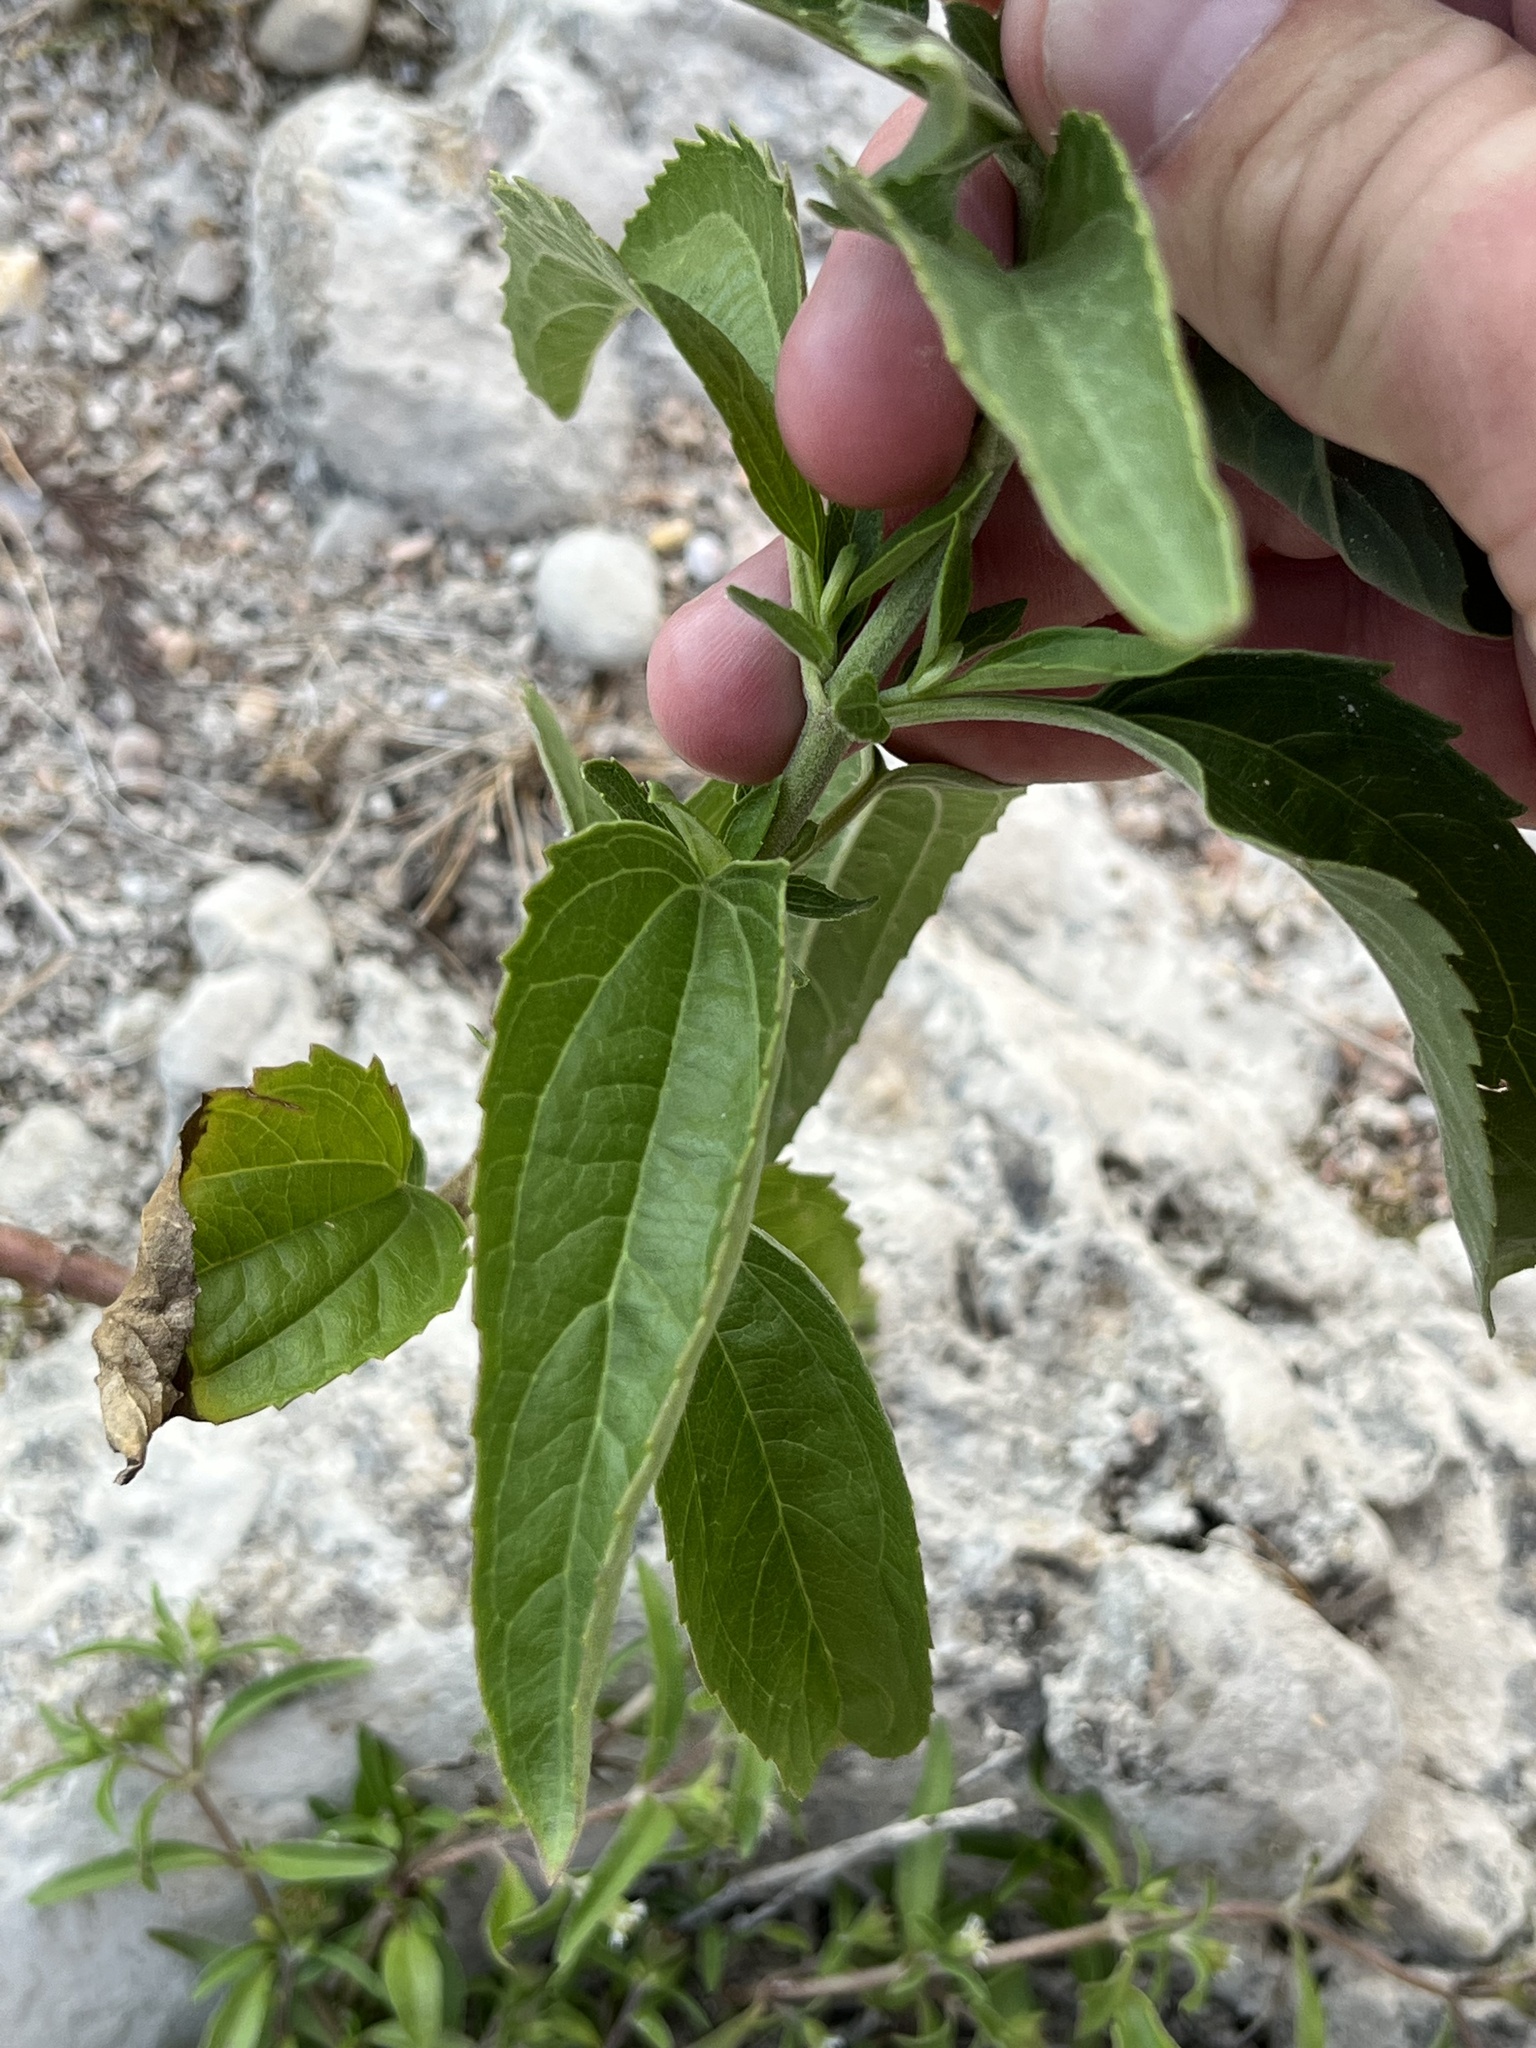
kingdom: Plantae
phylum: Tracheophyta
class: Magnoliopsida
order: Asterales
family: Asteraceae
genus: Eupatorium
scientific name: Eupatorium serotinum
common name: Late boneset
